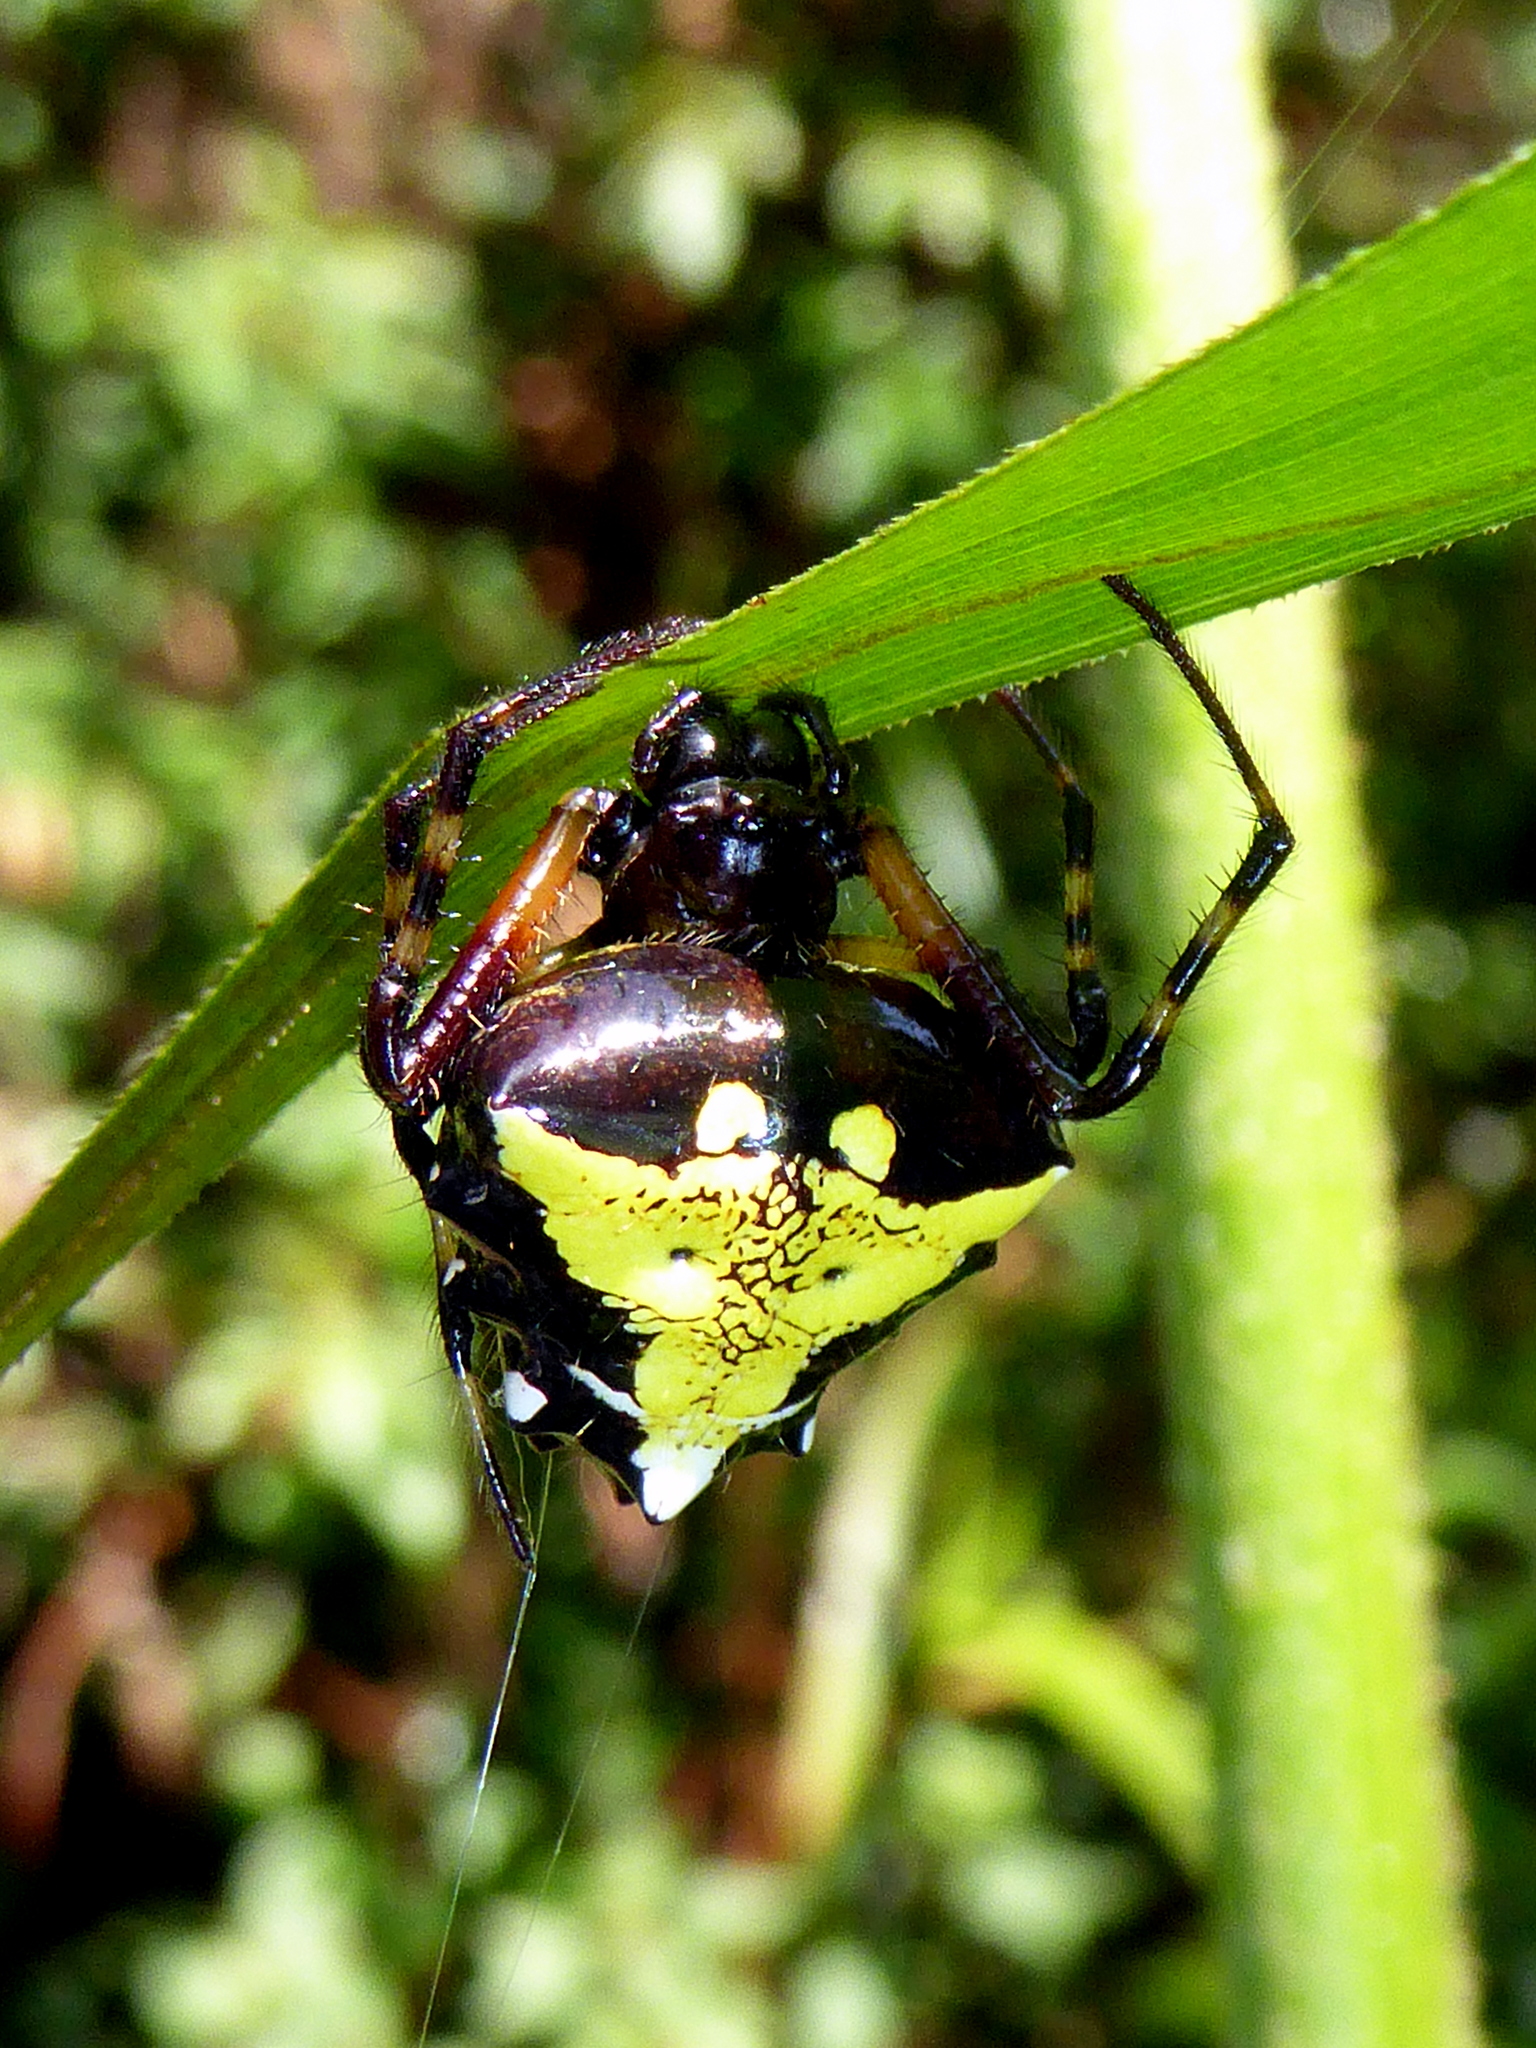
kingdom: Animalia
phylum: Arthropoda
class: Arachnida
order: Araneae
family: Araneidae
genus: Verrucosa
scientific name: Verrucosa arenata
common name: Orb weavers
